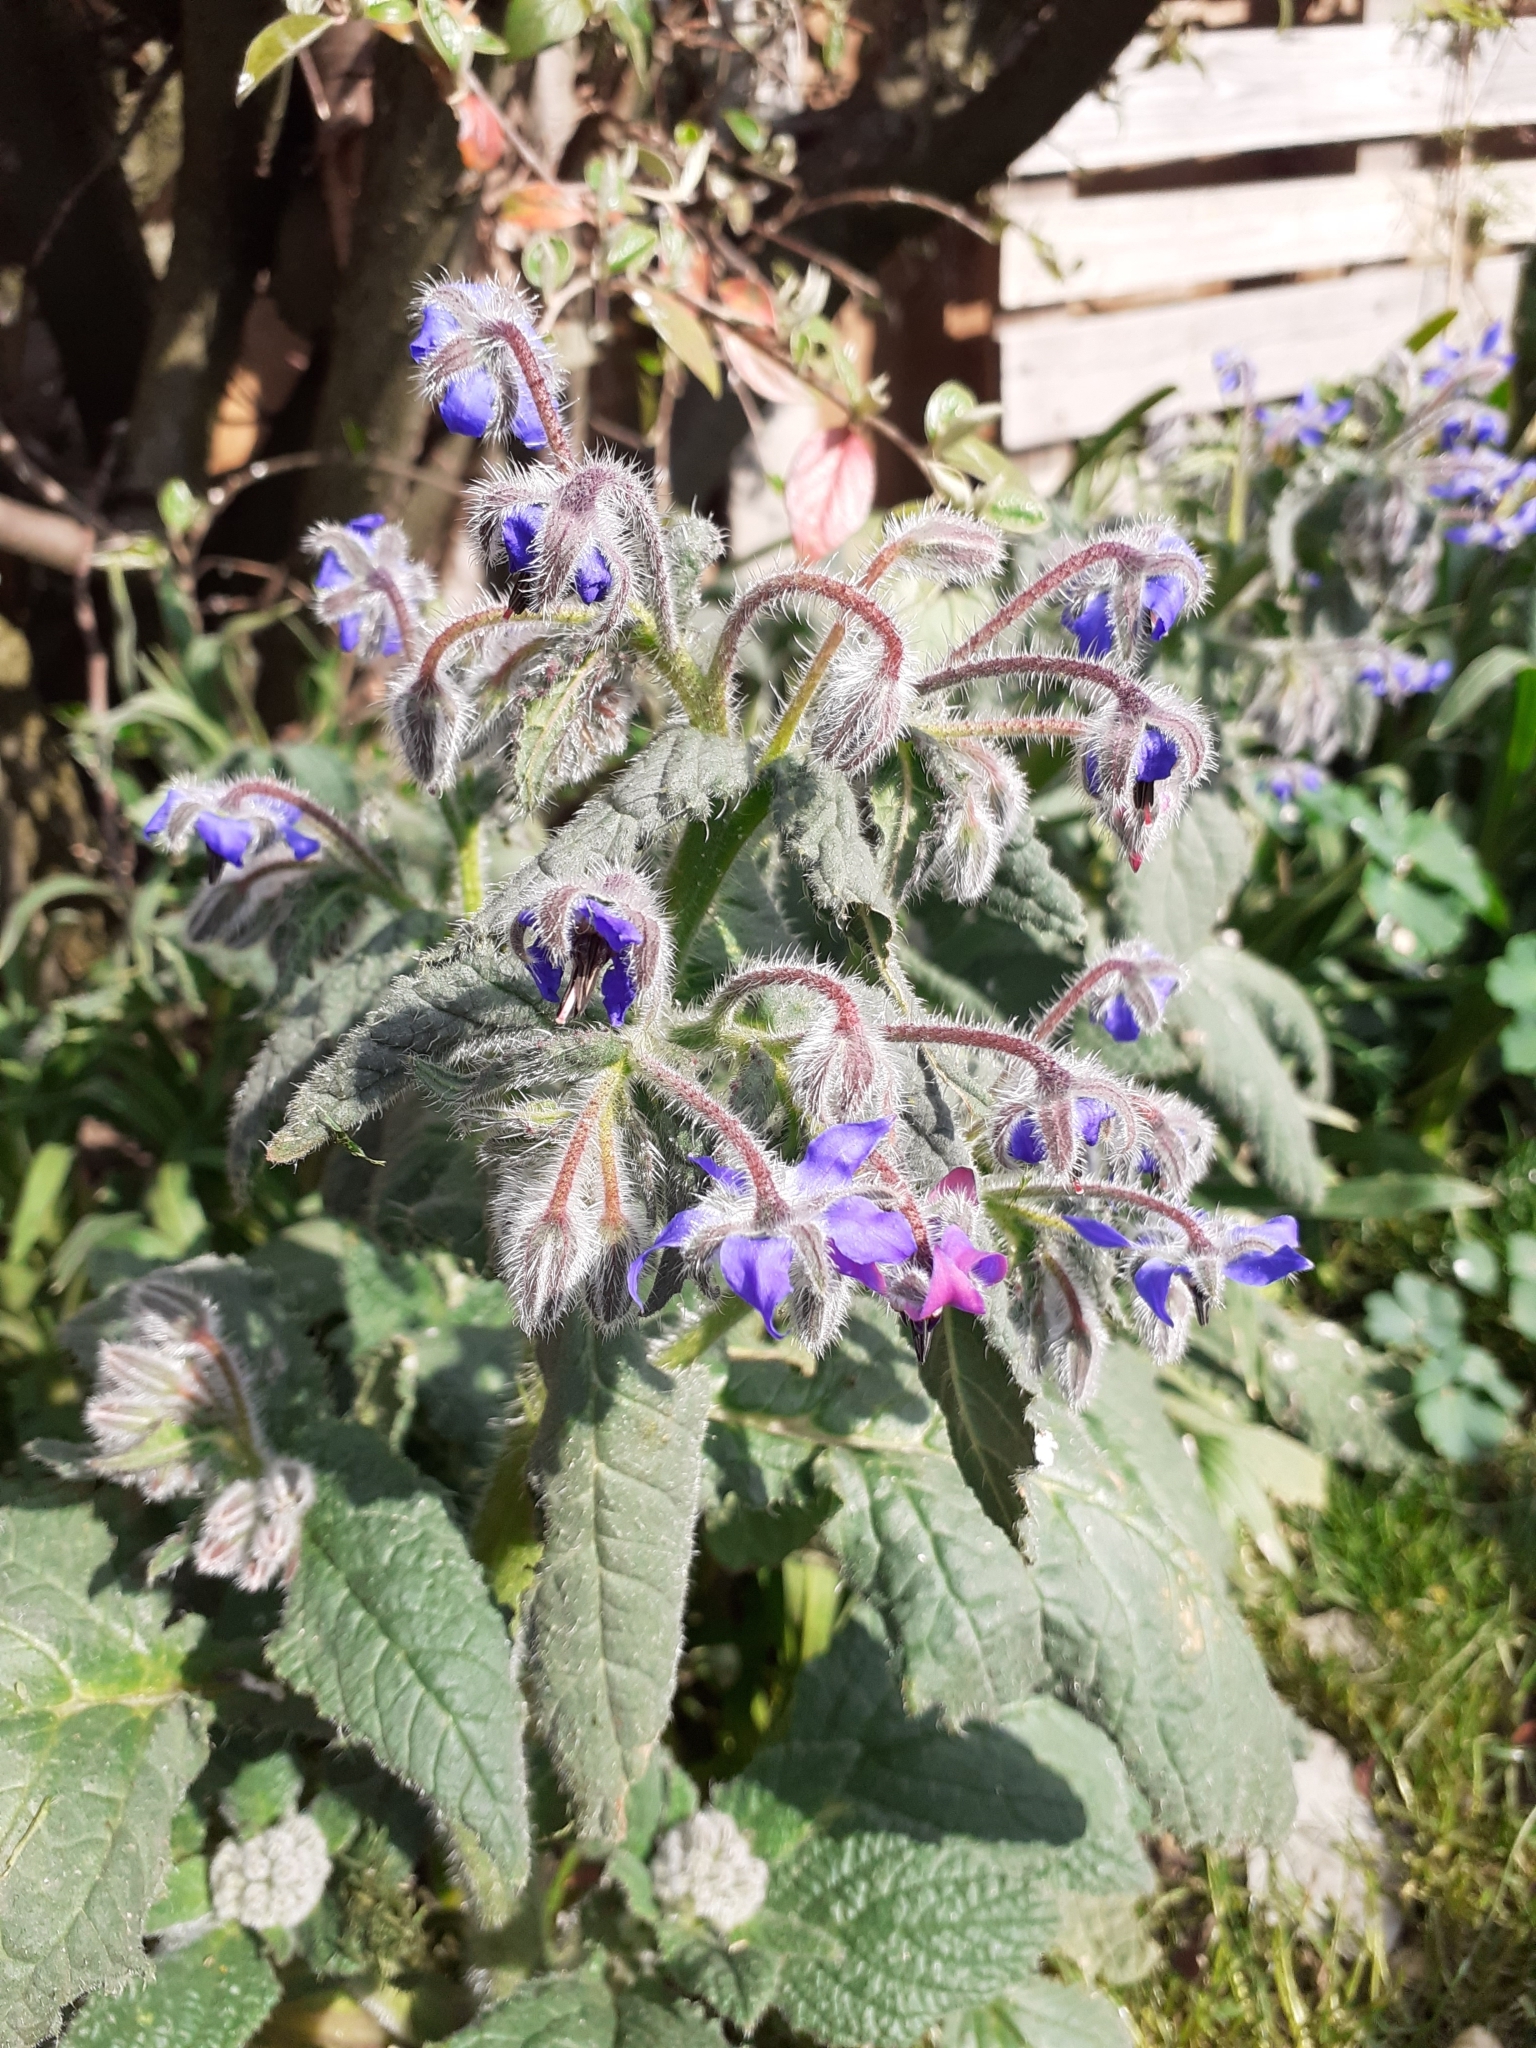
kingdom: Plantae
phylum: Tracheophyta
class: Magnoliopsida
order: Boraginales
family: Boraginaceae
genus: Borago
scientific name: Borago officinalis
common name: Borage
